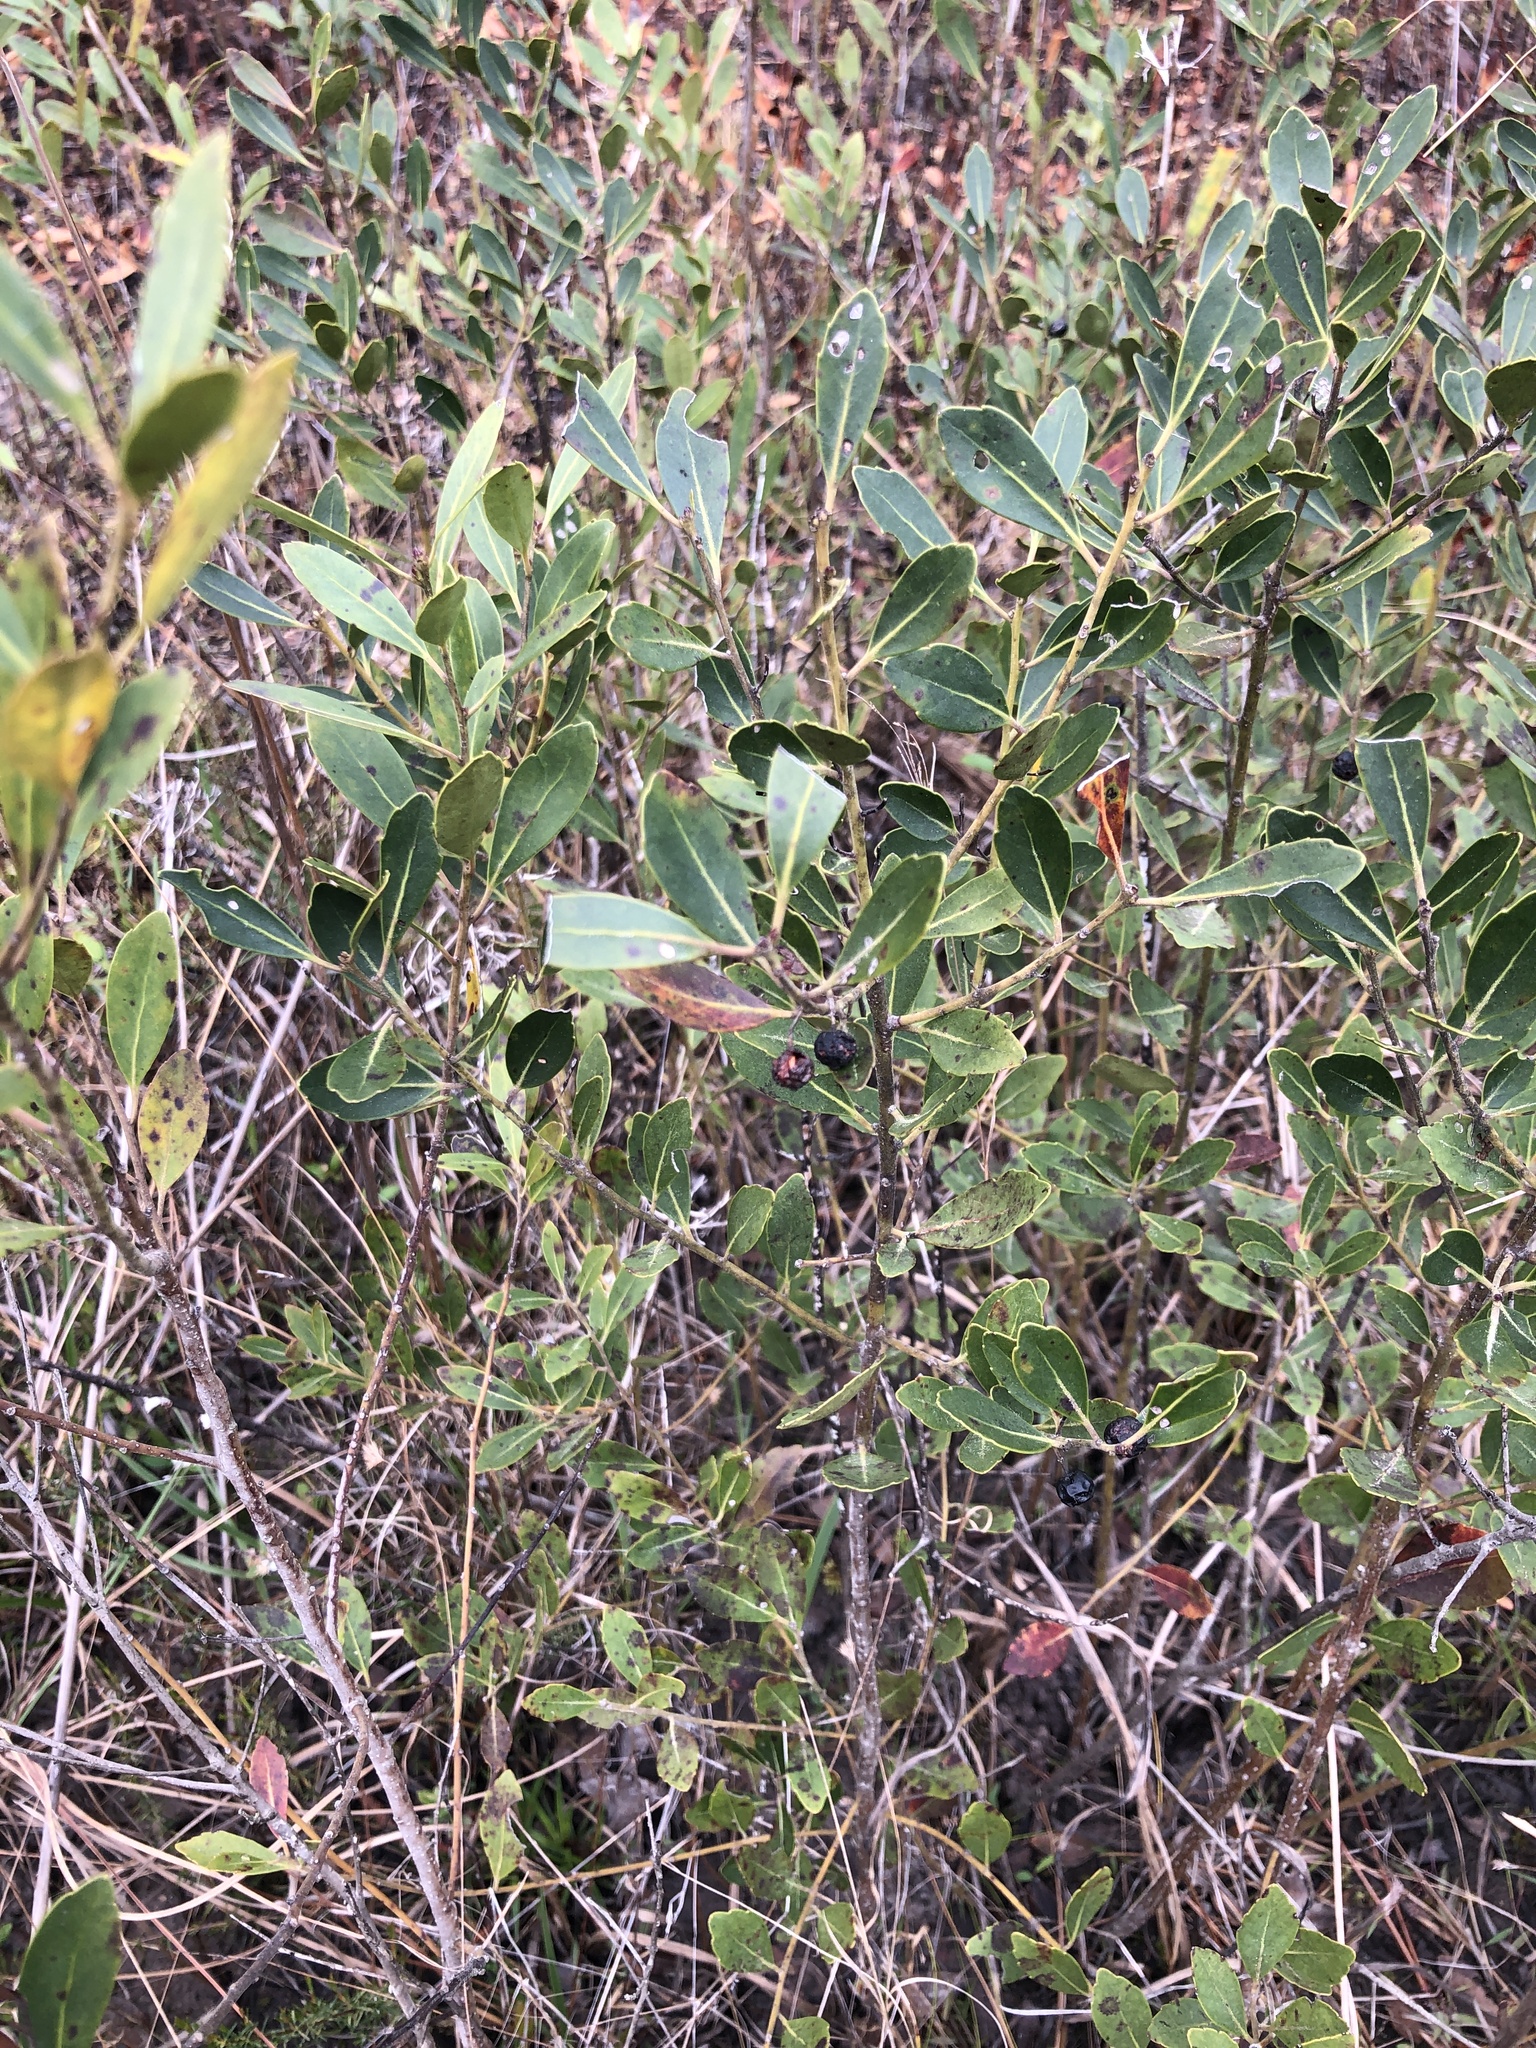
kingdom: Plantae
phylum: Tracheophyta
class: Magnoliopsida
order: Aquifoliales
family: Aquifoliaceae
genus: Ilex
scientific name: Ilex glabra
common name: Bitter gallberry
